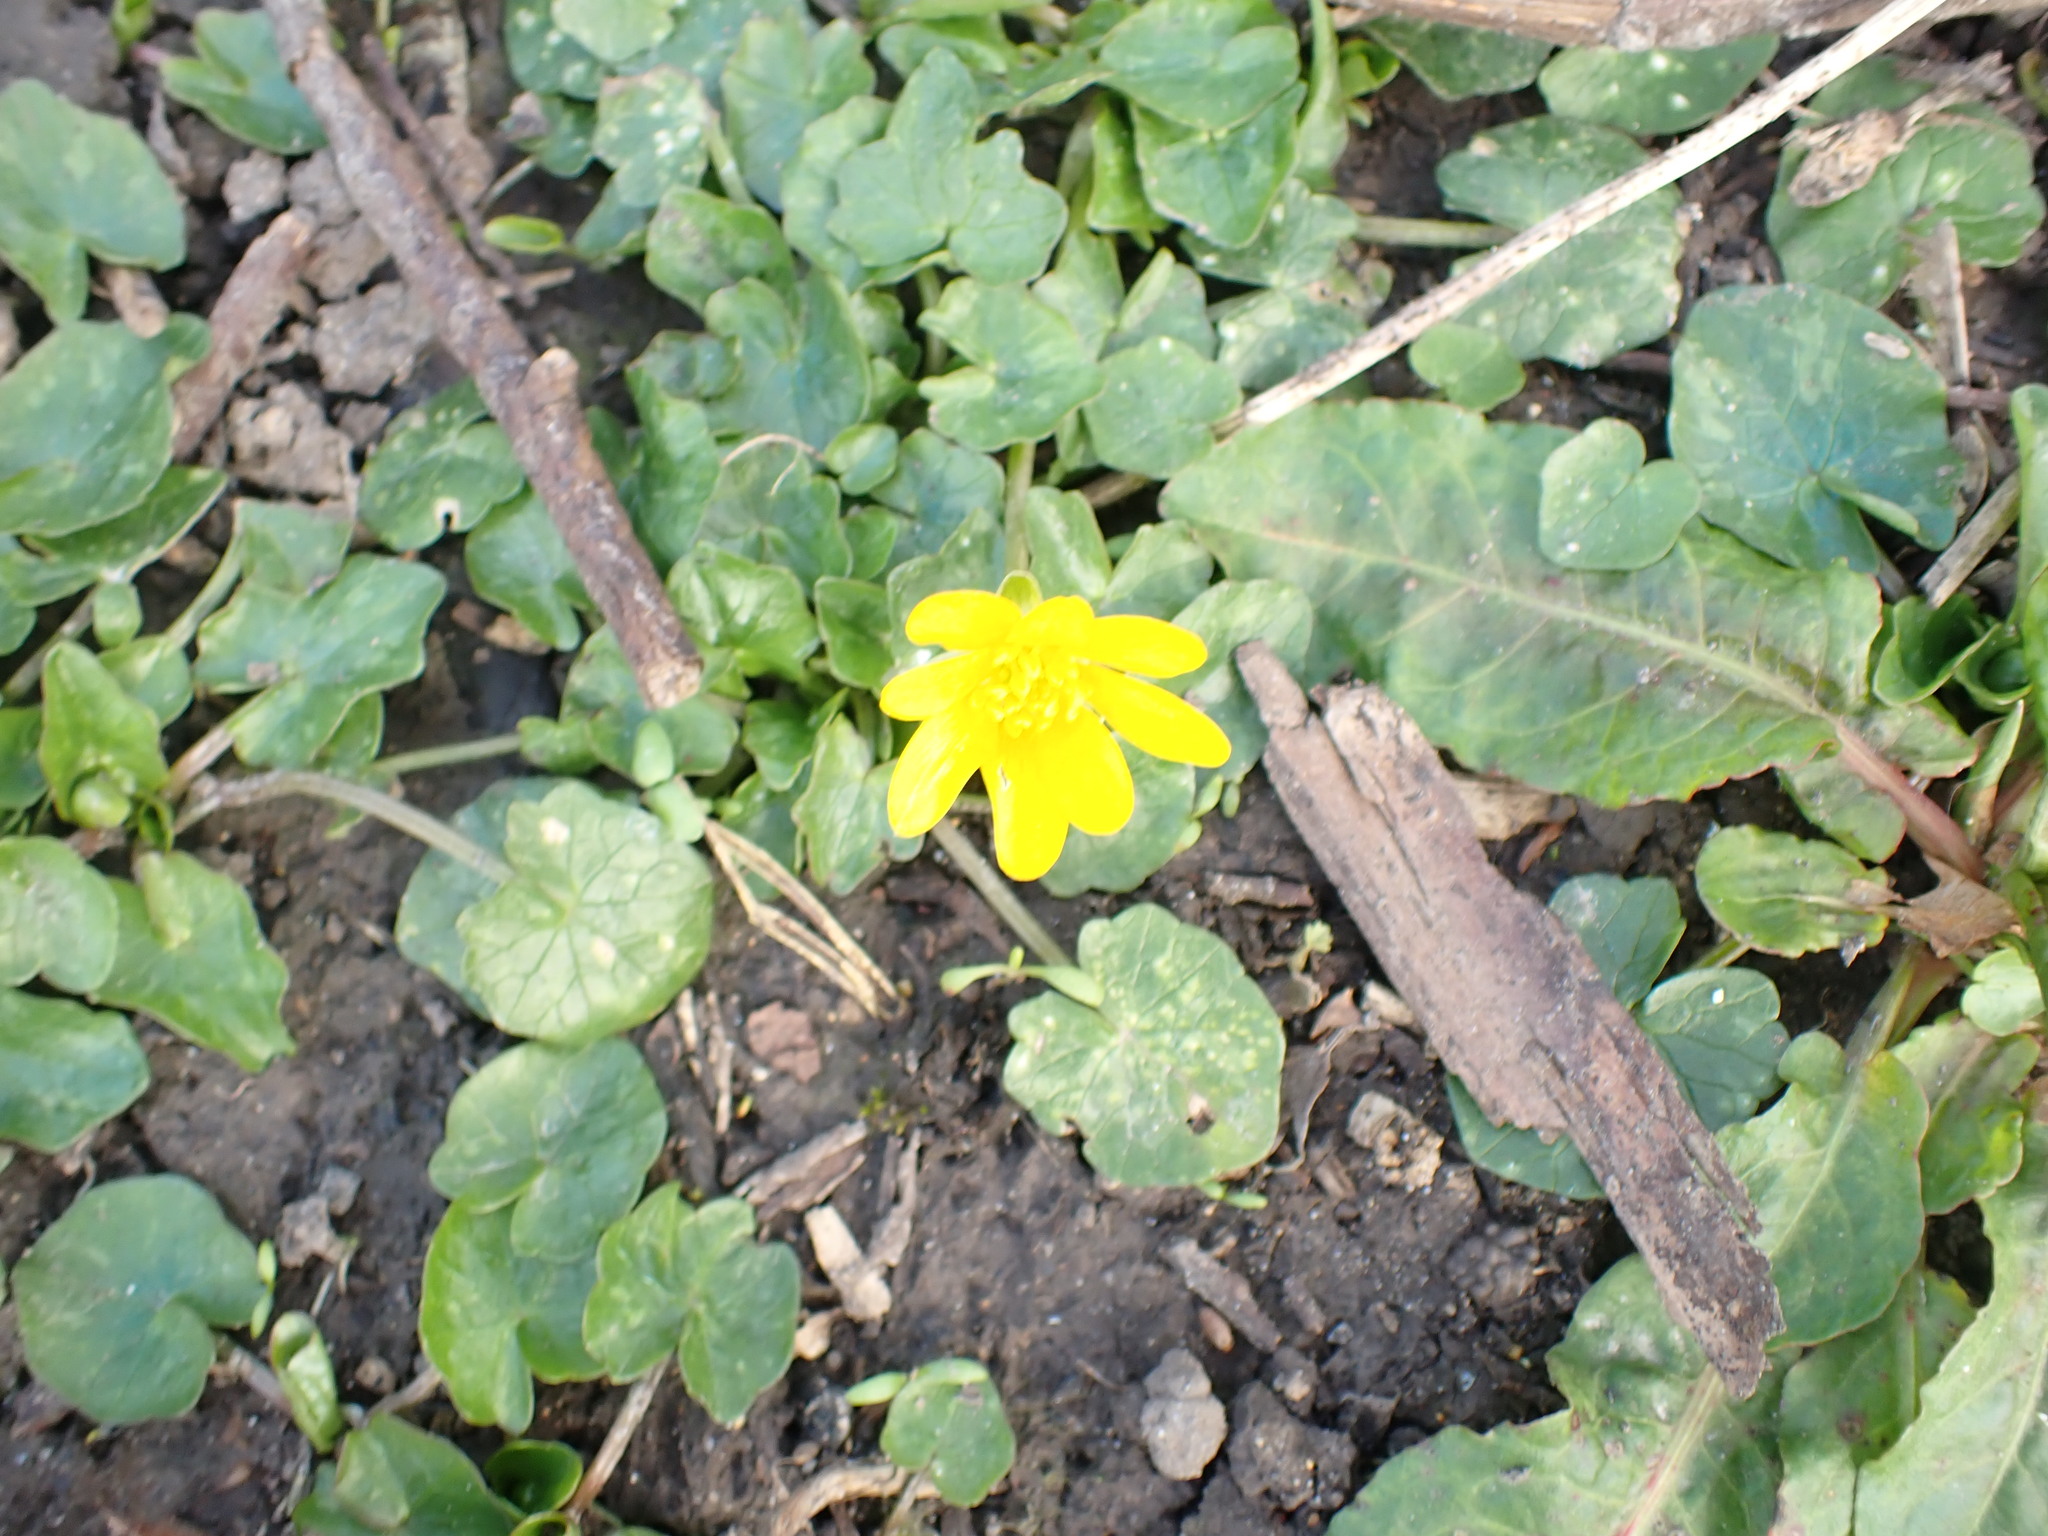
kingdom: Plantae
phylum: Tracheophyta
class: Magnoliopsida
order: Ranunculales
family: Ranunculaceae
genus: Ficaria
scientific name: Ficaria verna
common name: Lesser celandine
